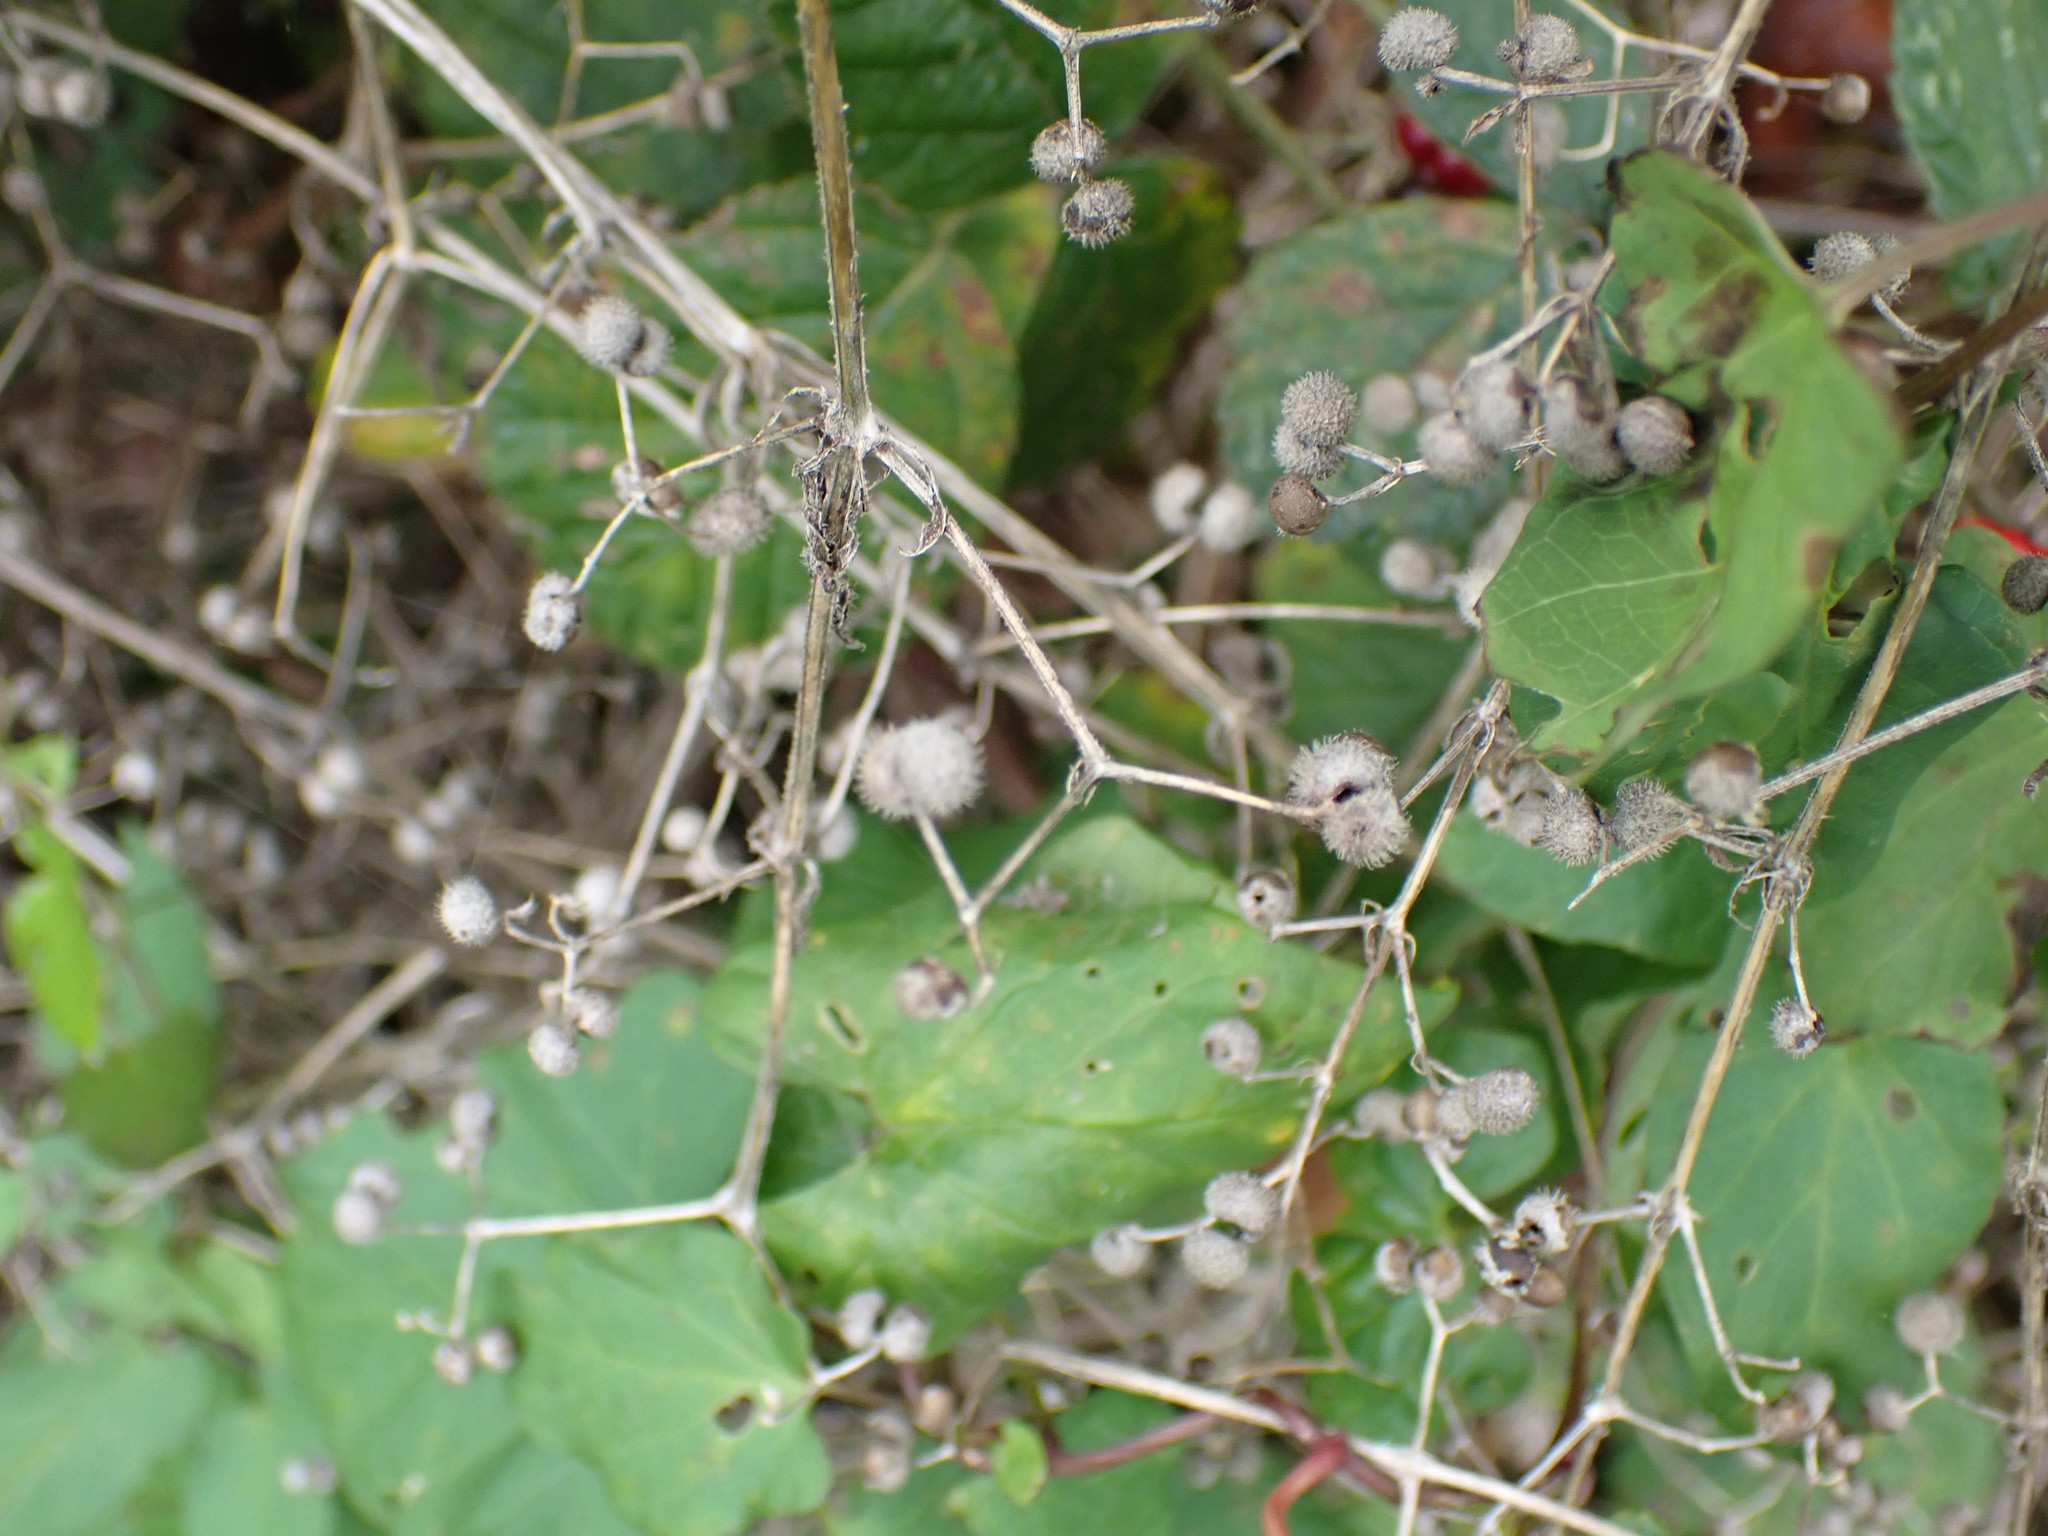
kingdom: Plantae
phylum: Tracheophyta
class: Magnoliopsida
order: Gentianales
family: Rubiaceae
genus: Galium
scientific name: Galium aparine
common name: Cleavers
